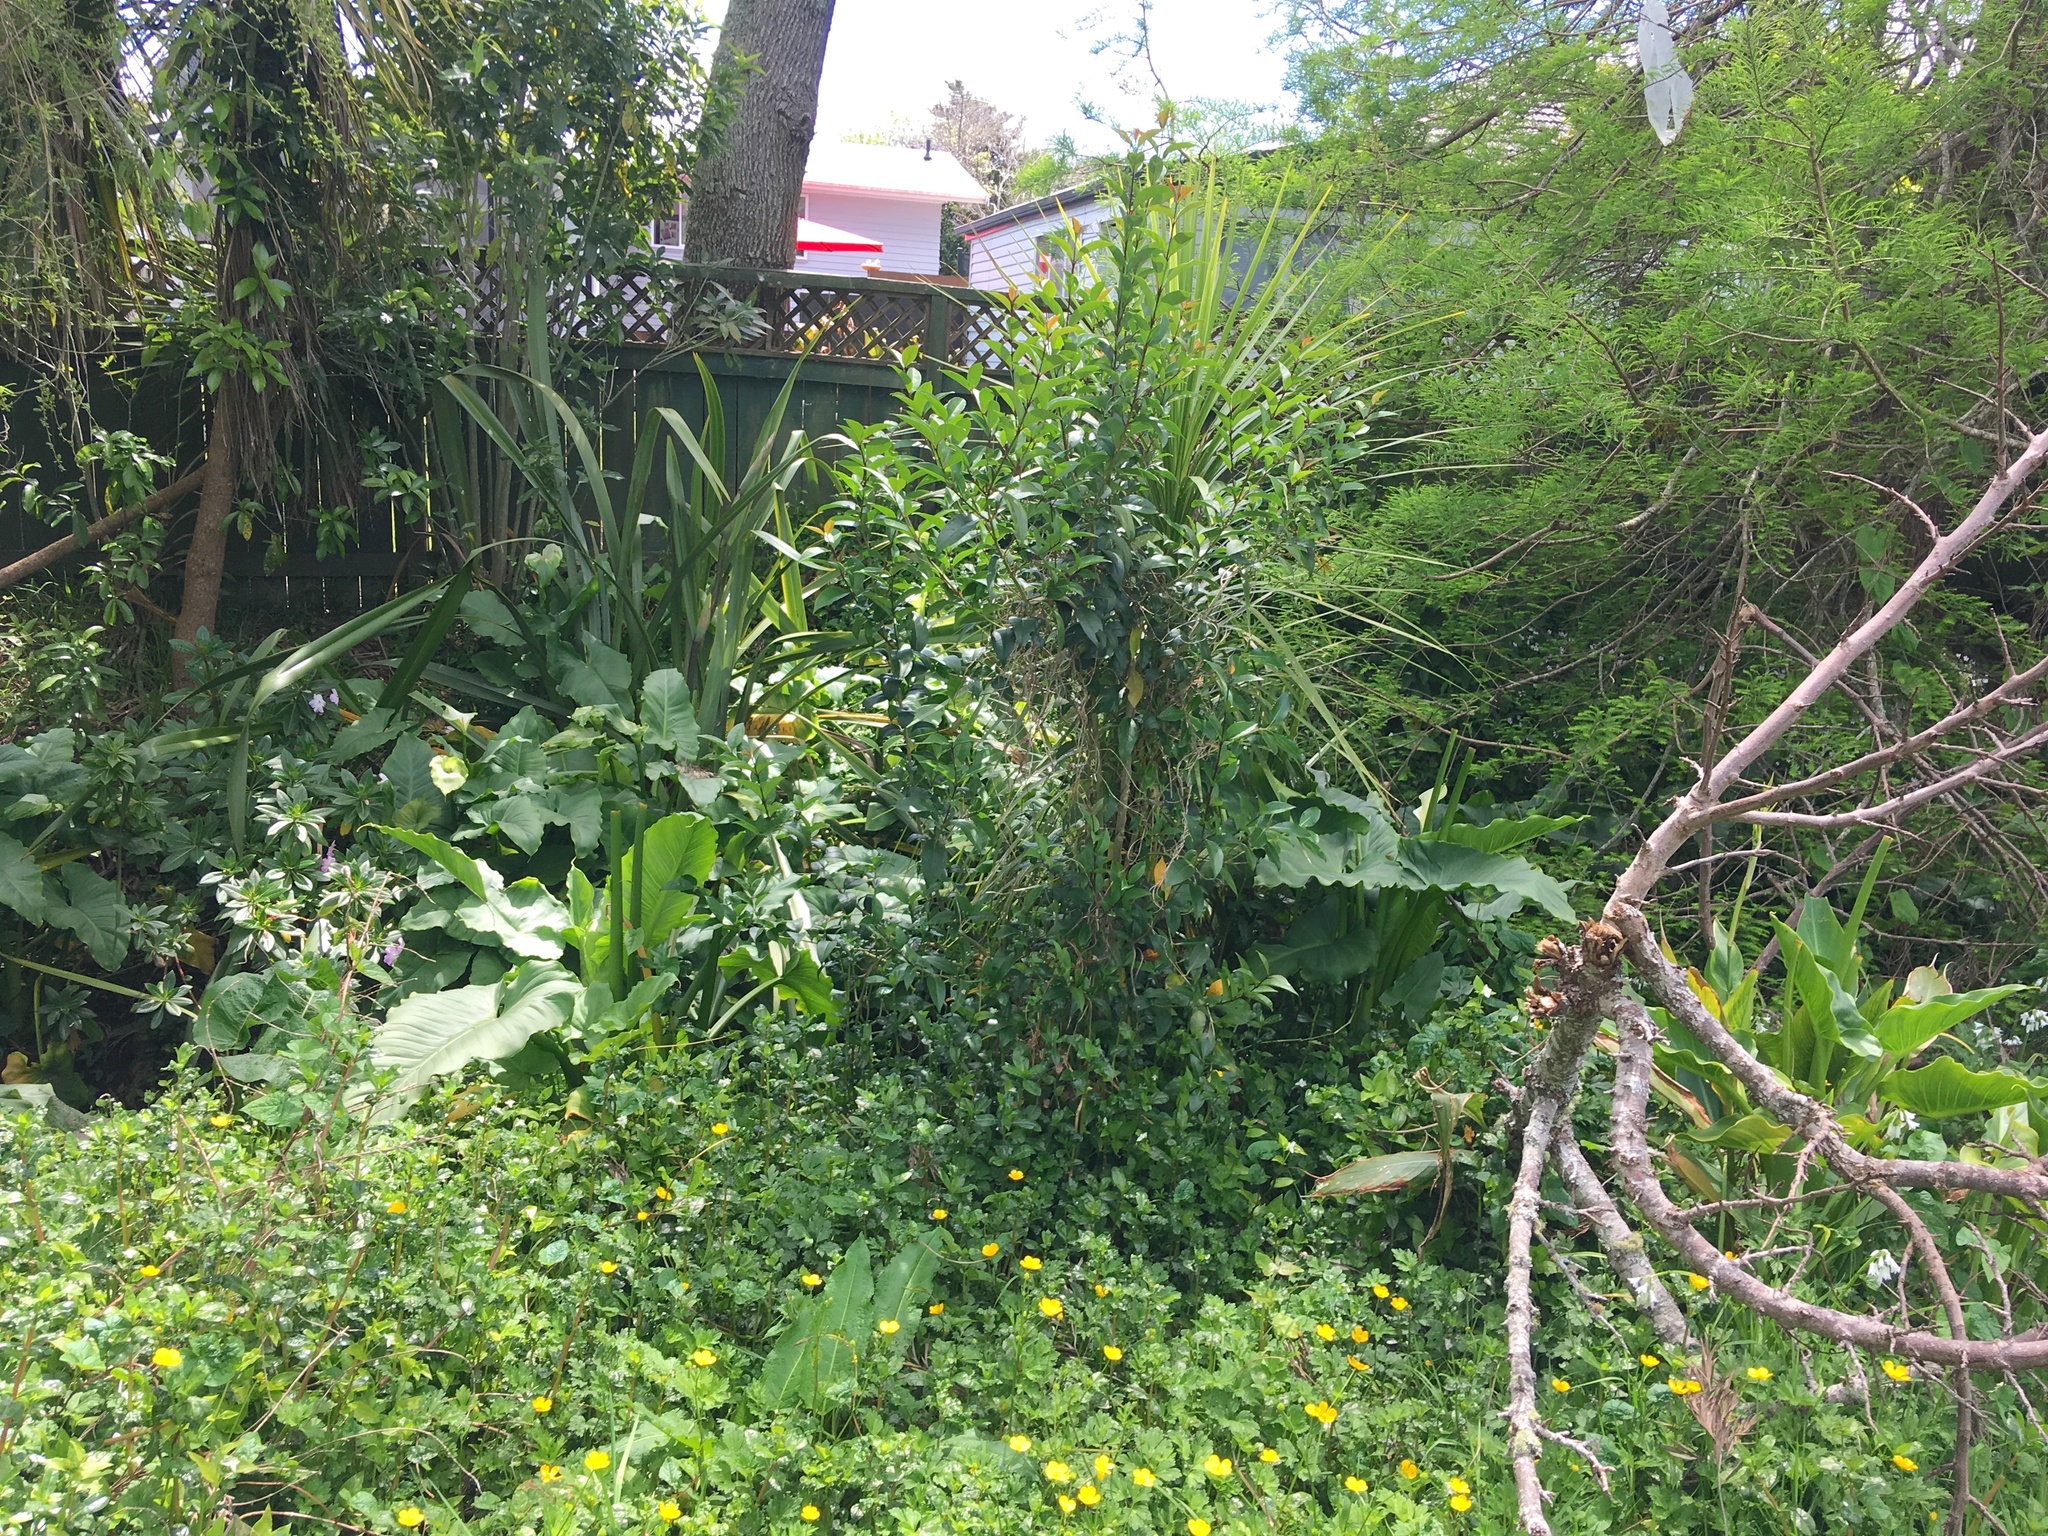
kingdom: Plantae
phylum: Tracheophyta
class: Magnoliopsida
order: Lamiales
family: Oleaceae
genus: Ligustrum
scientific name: Ligustrum lucidum
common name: Glossy privet
